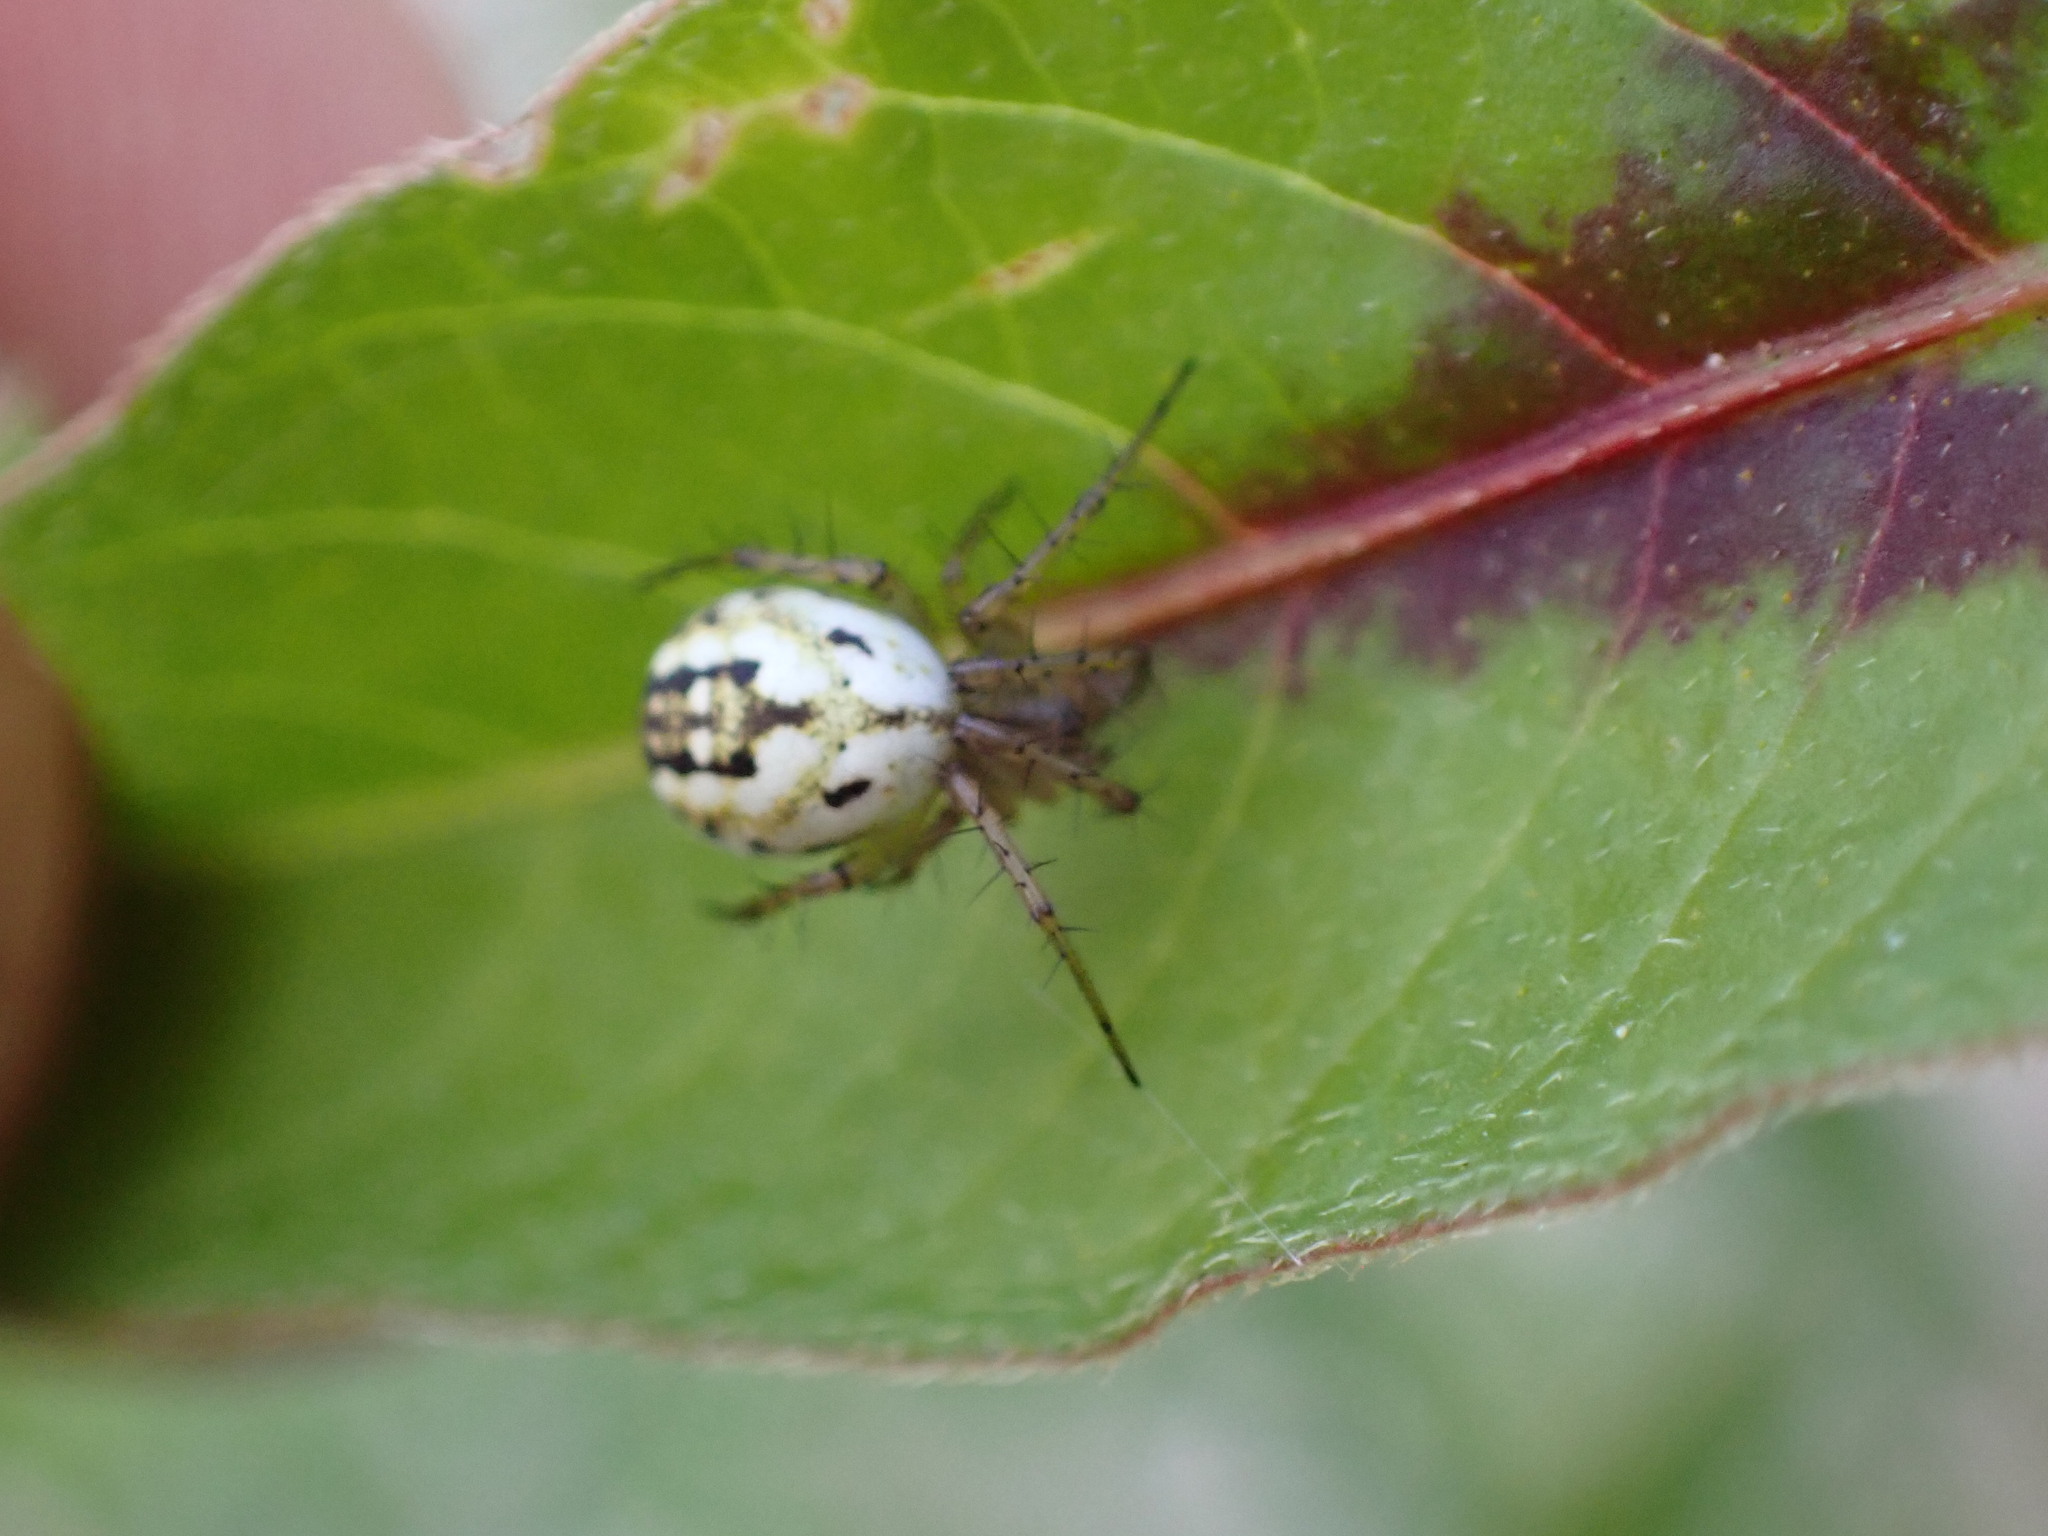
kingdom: Animalia
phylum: Arthropoda
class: Arachnida
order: Araneae
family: Araneidae
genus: Mangora
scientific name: Mangora acalypha
